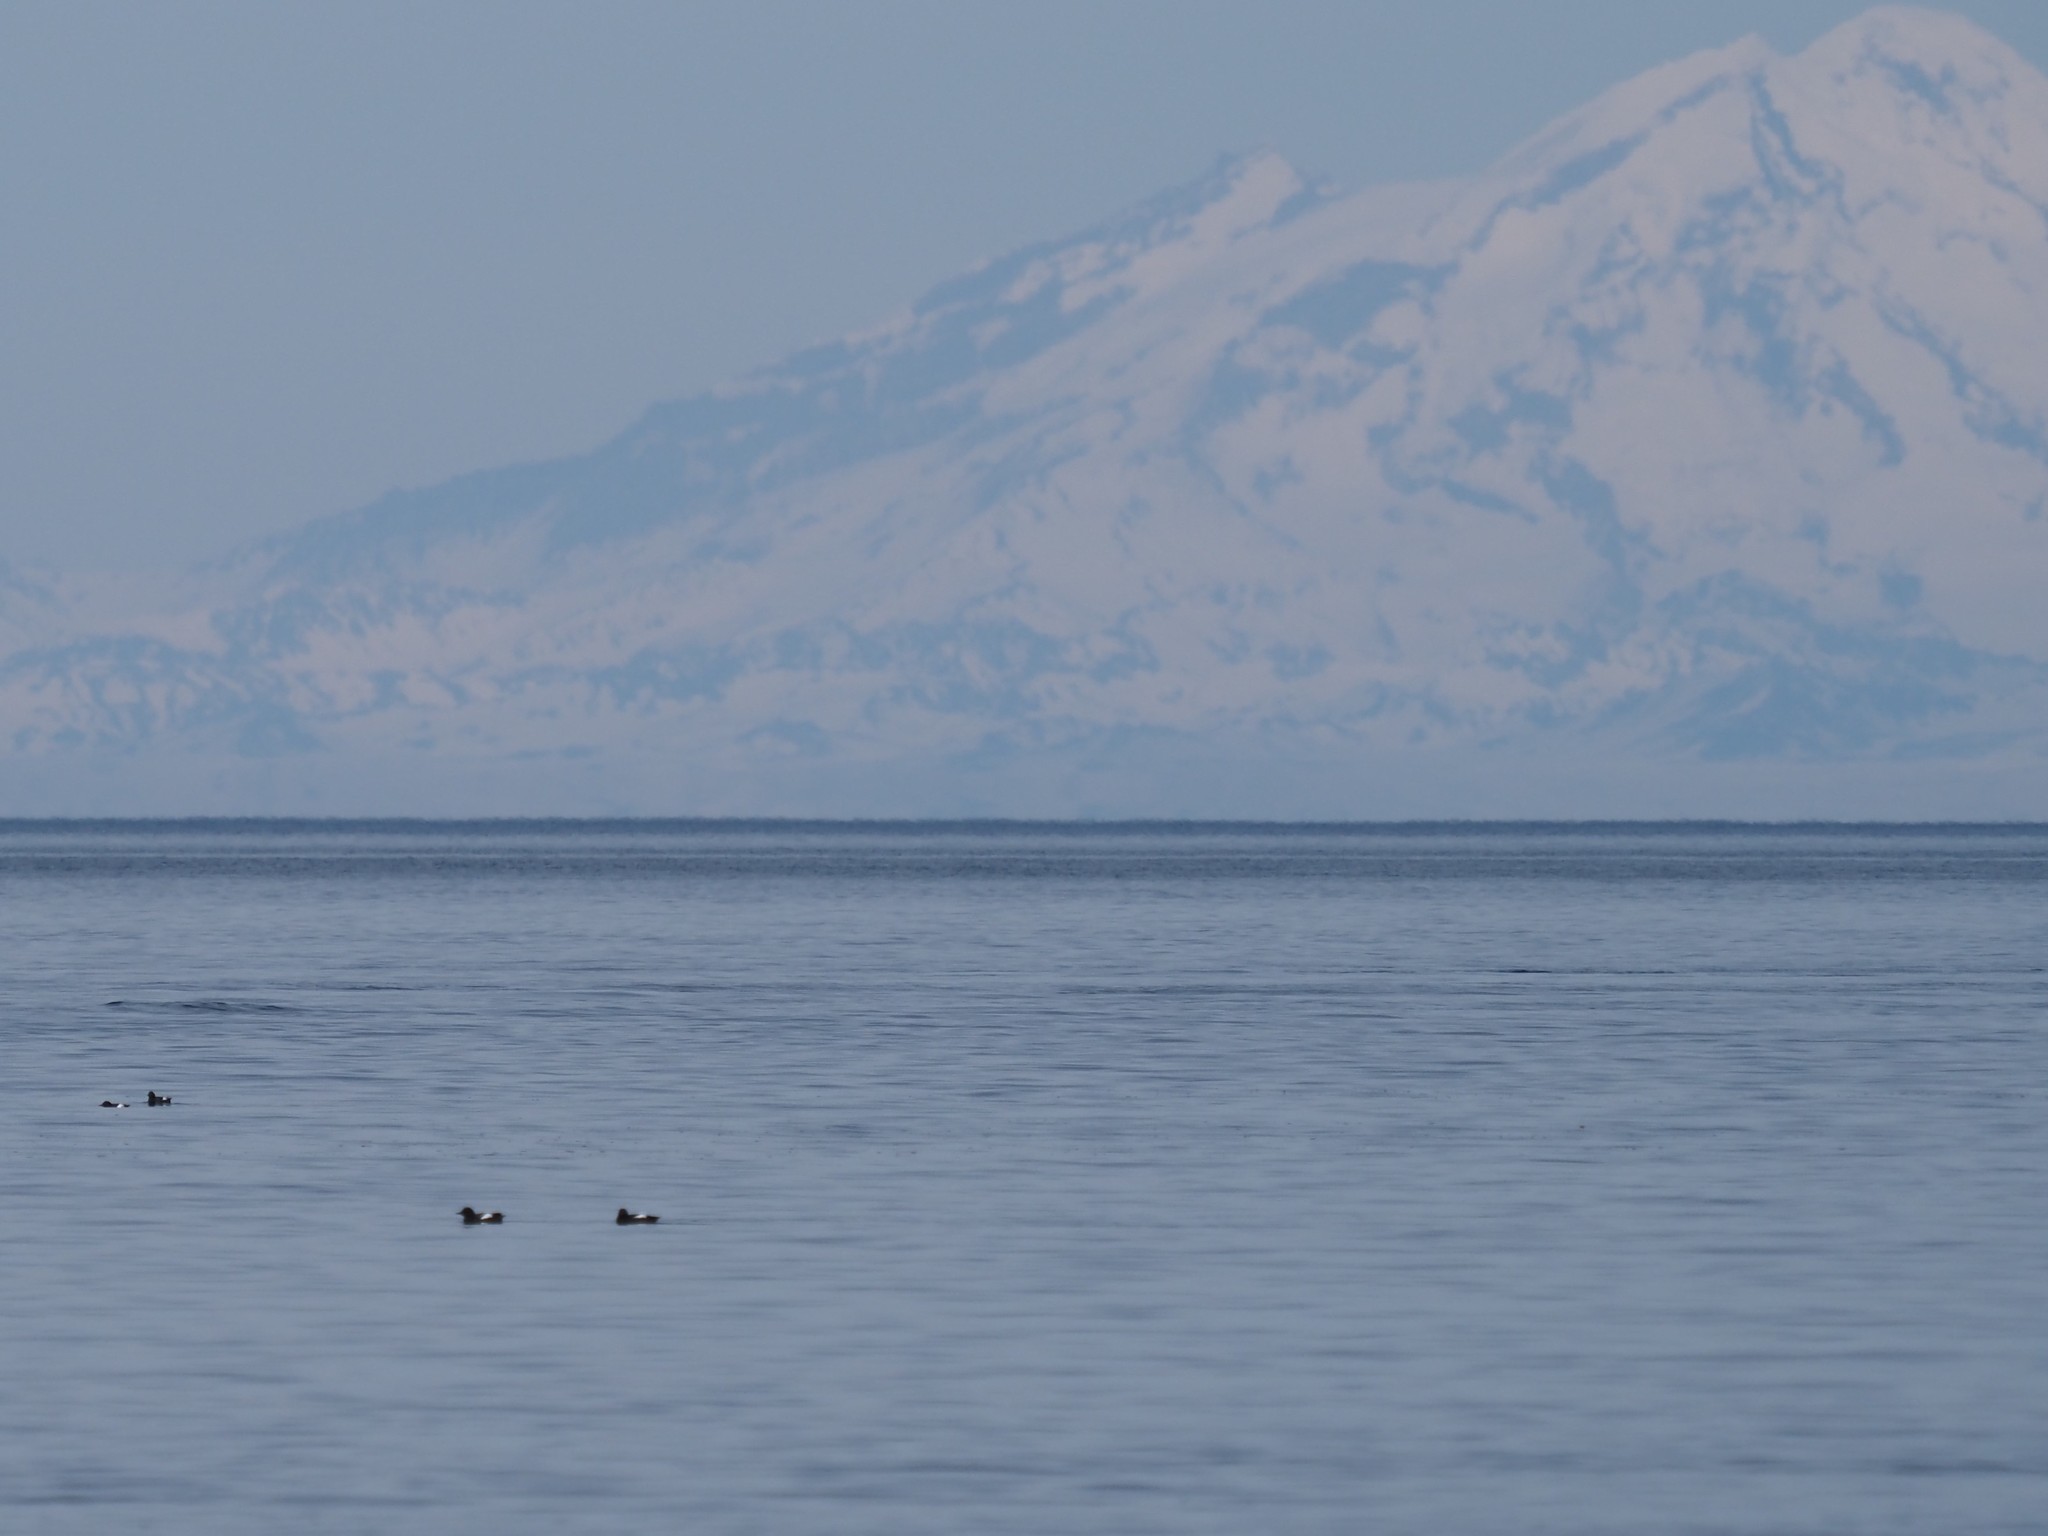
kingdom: Animalia
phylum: Chordata
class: Aves
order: Gaviiformes
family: Gaviidae
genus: Gavia
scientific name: Gavia immer
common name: Common loon
